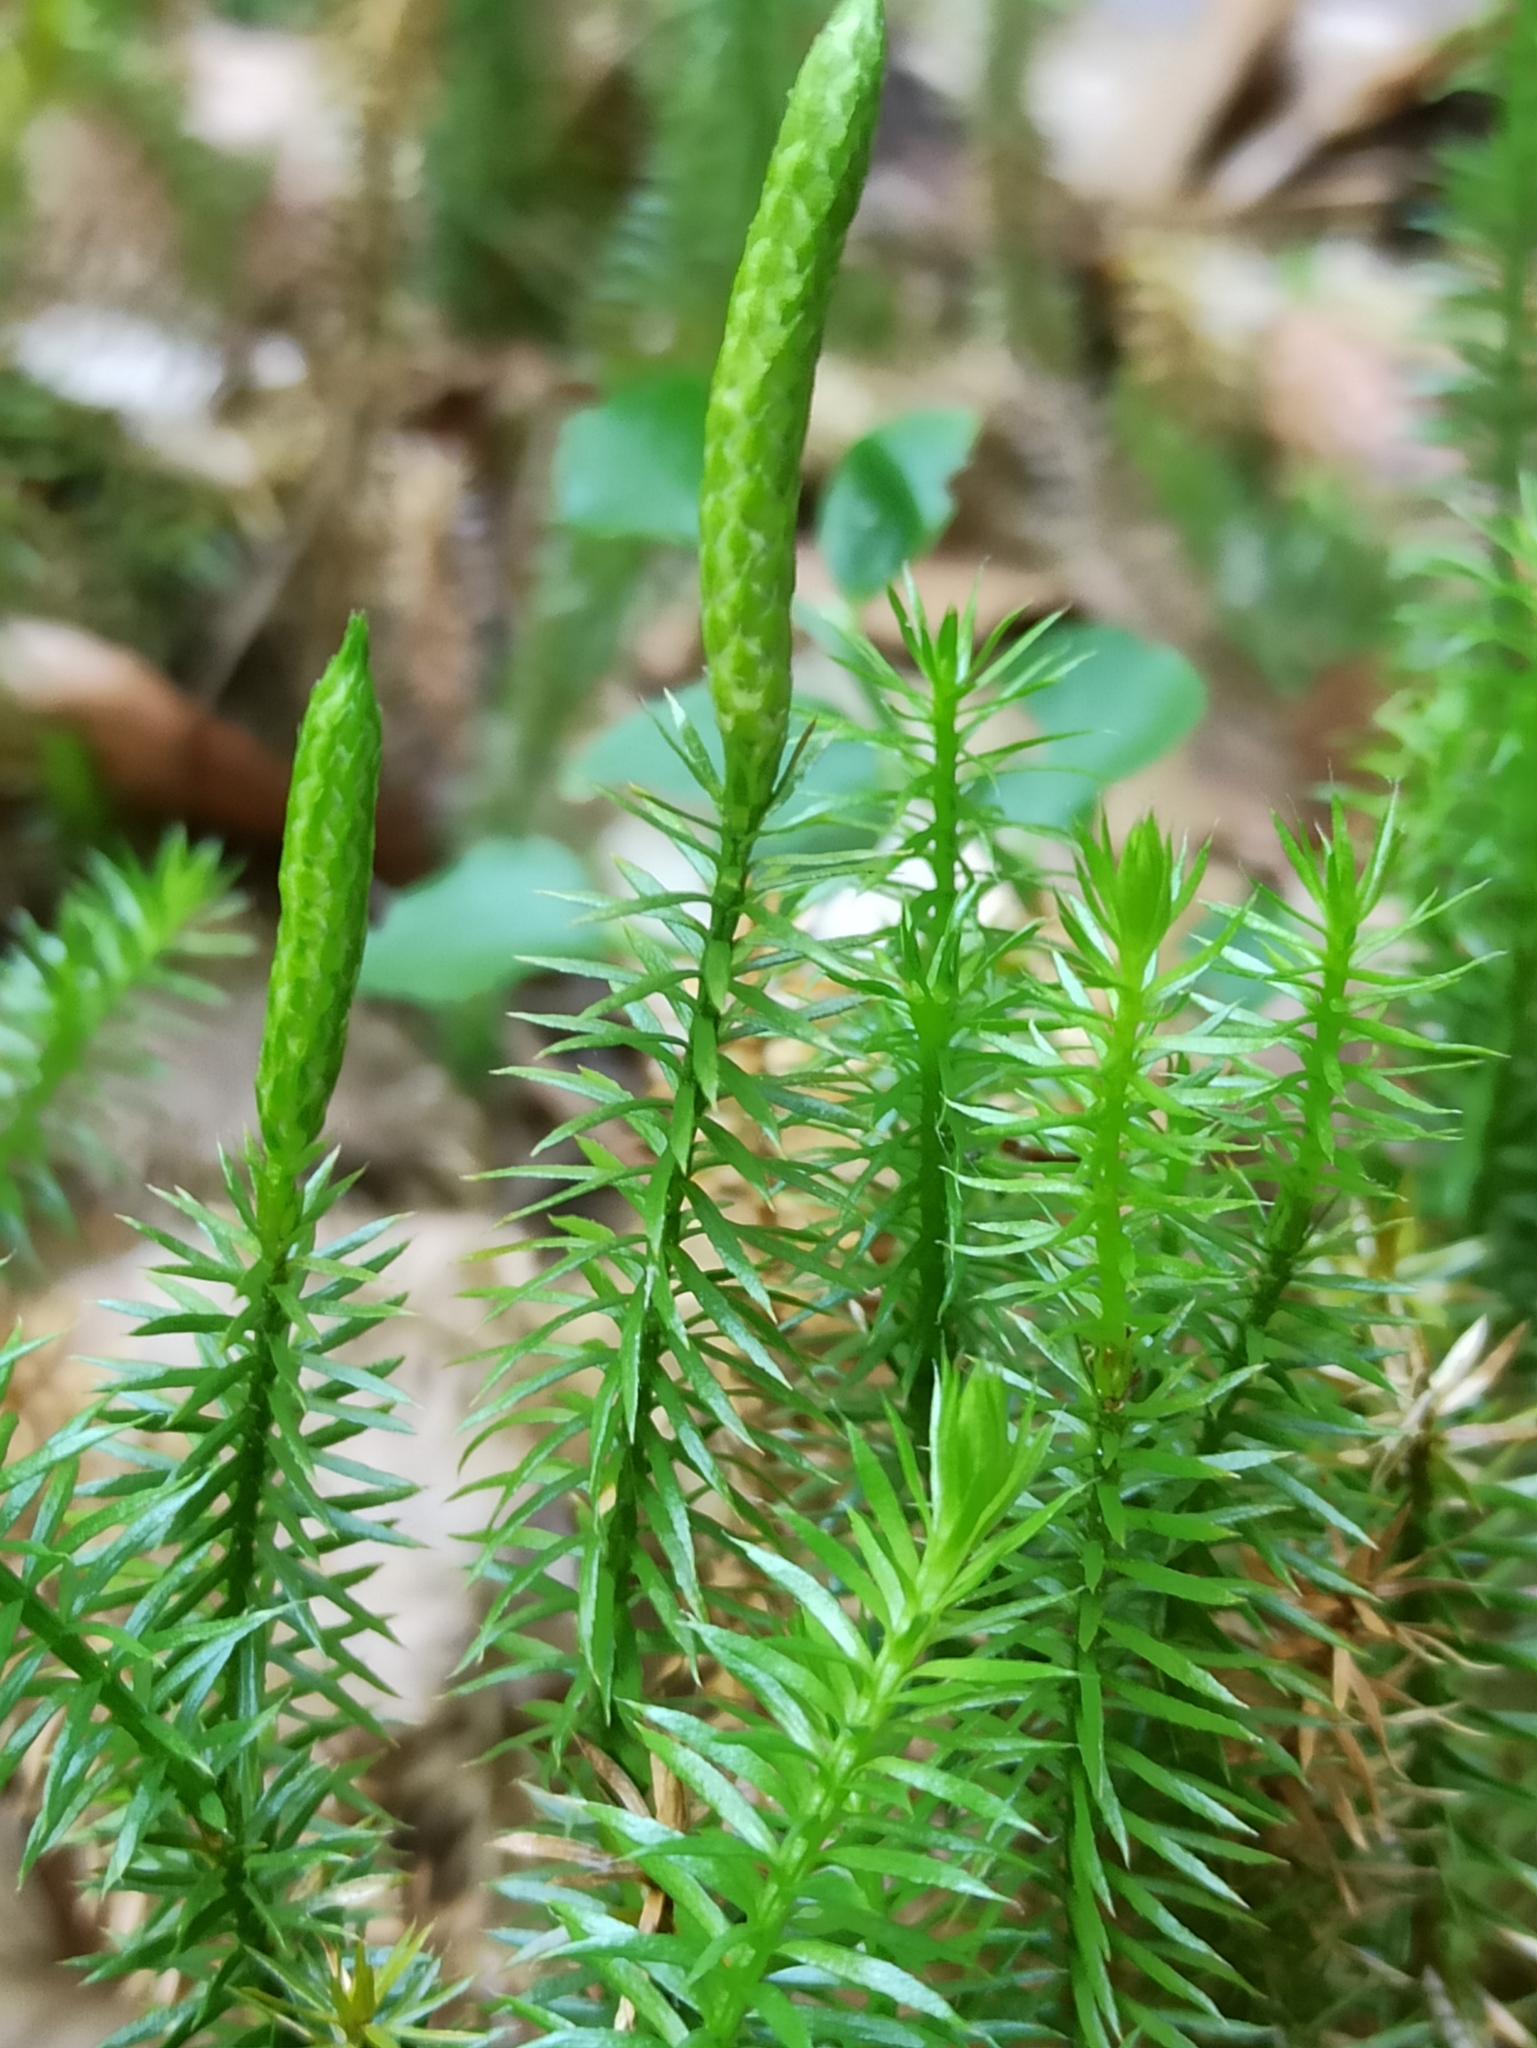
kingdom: Plantae
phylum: Tracheophyta
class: Lycopodiopsida
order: Lycopodiales
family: Lycopodiaceae
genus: Spinulum
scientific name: Spinulum annotinum
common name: Interrupted club-moss
